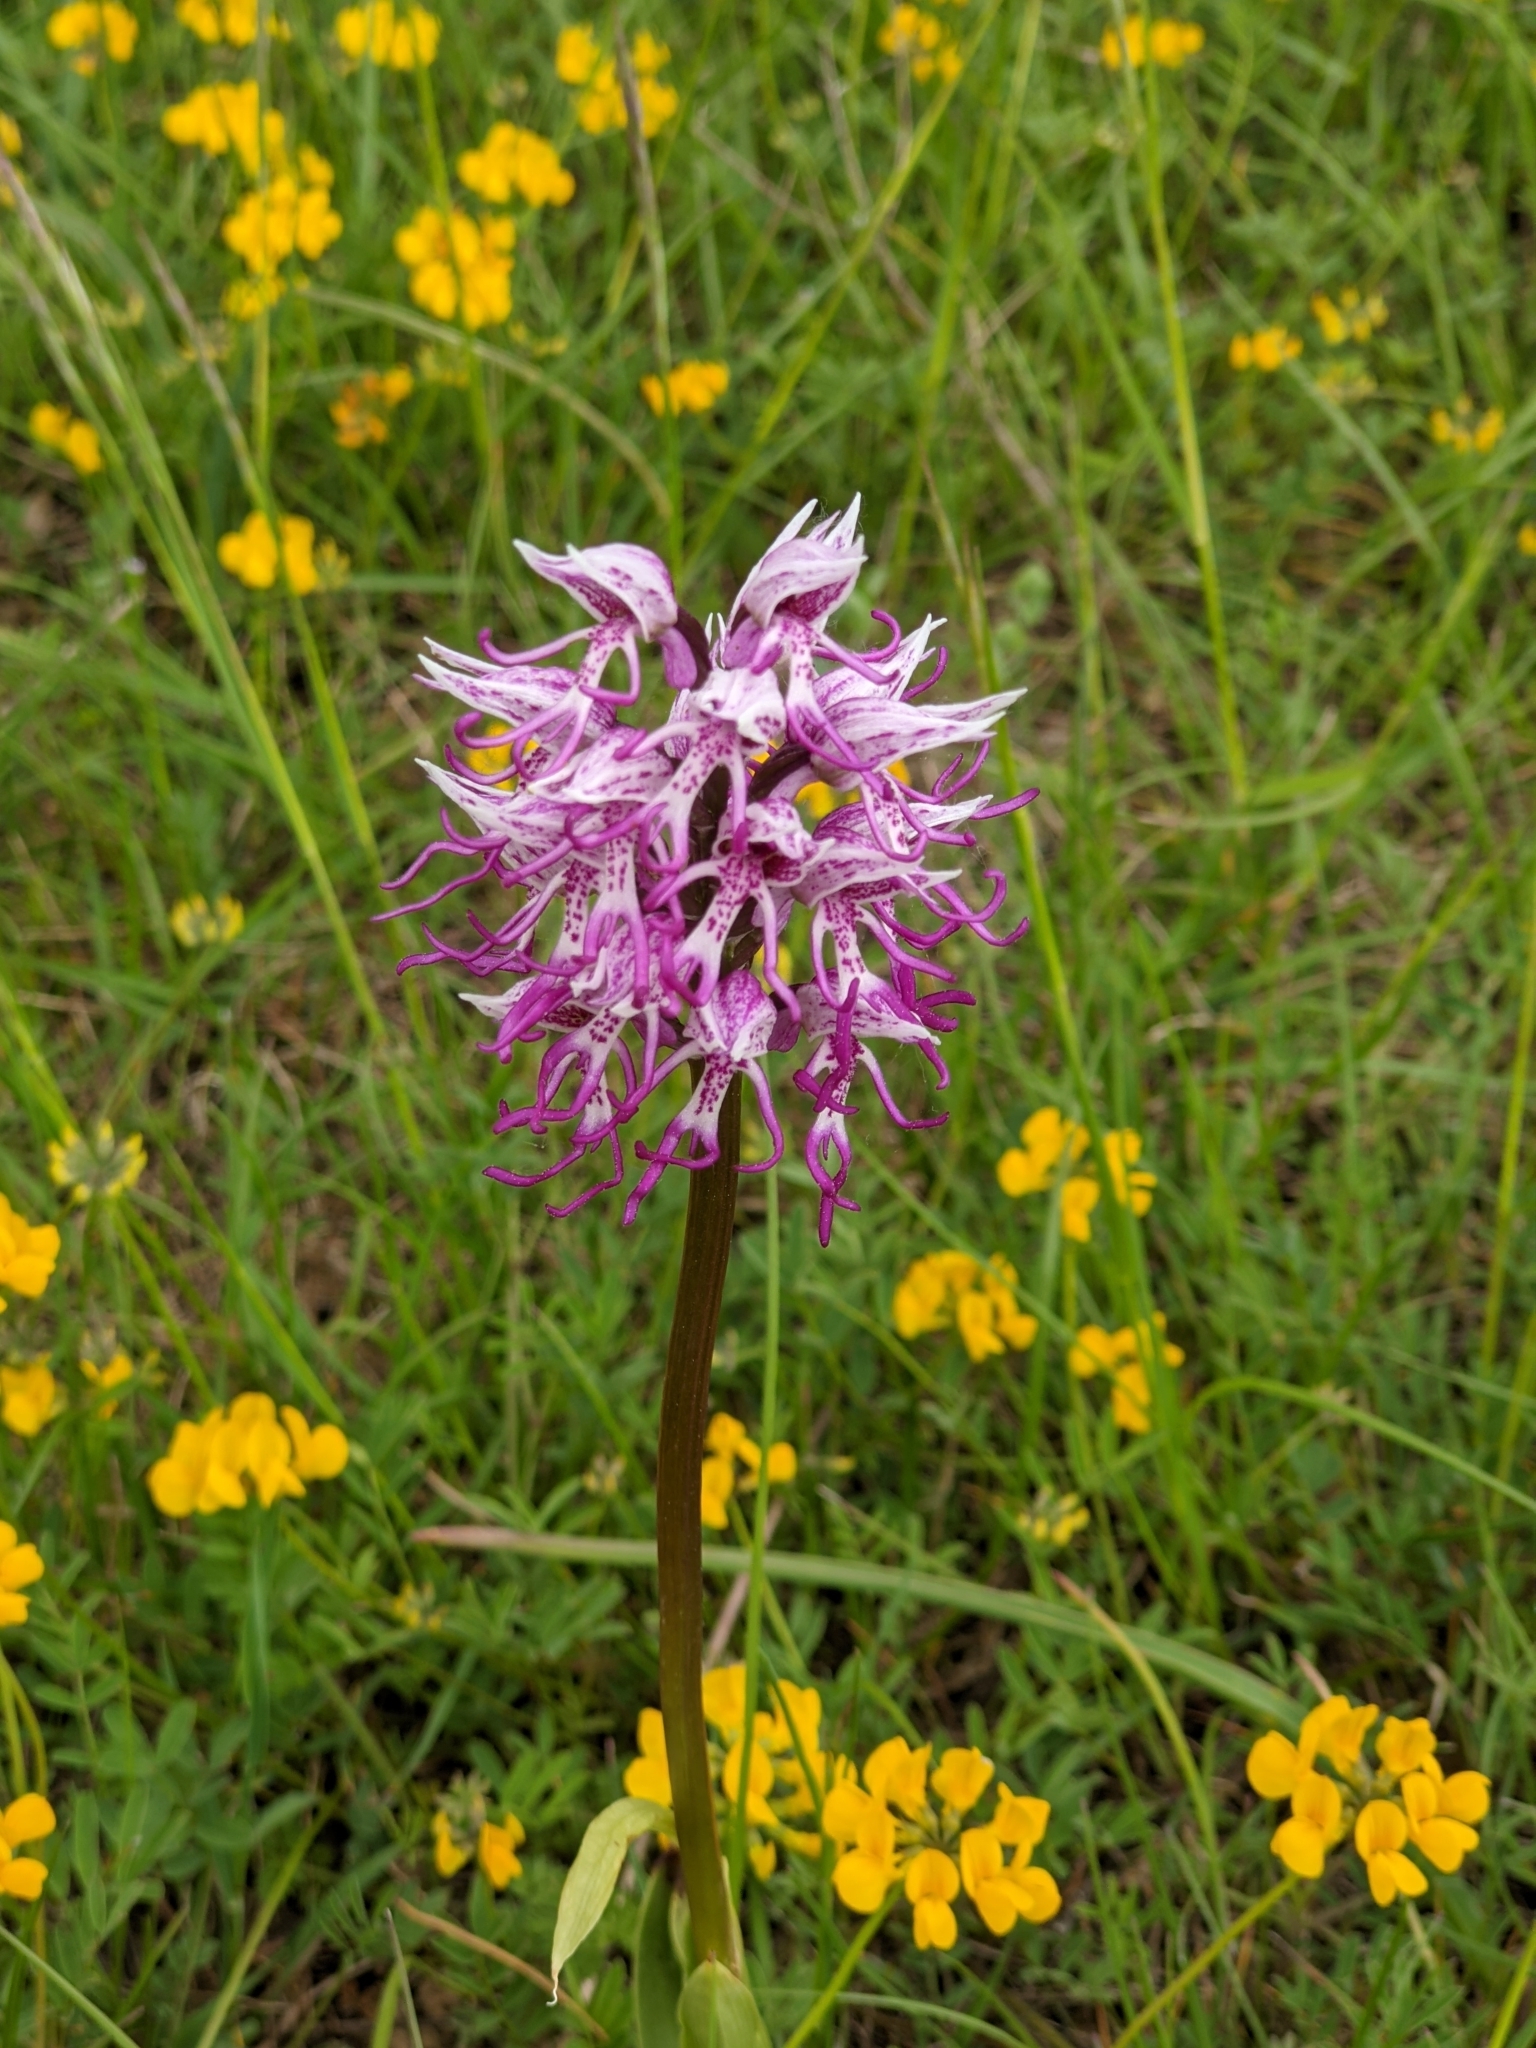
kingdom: Plantae
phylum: Tracheophyta
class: Liliopsida
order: Asparagales
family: Orchidaceae
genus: Orchis
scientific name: Orchis simia
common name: Monkey orchid
